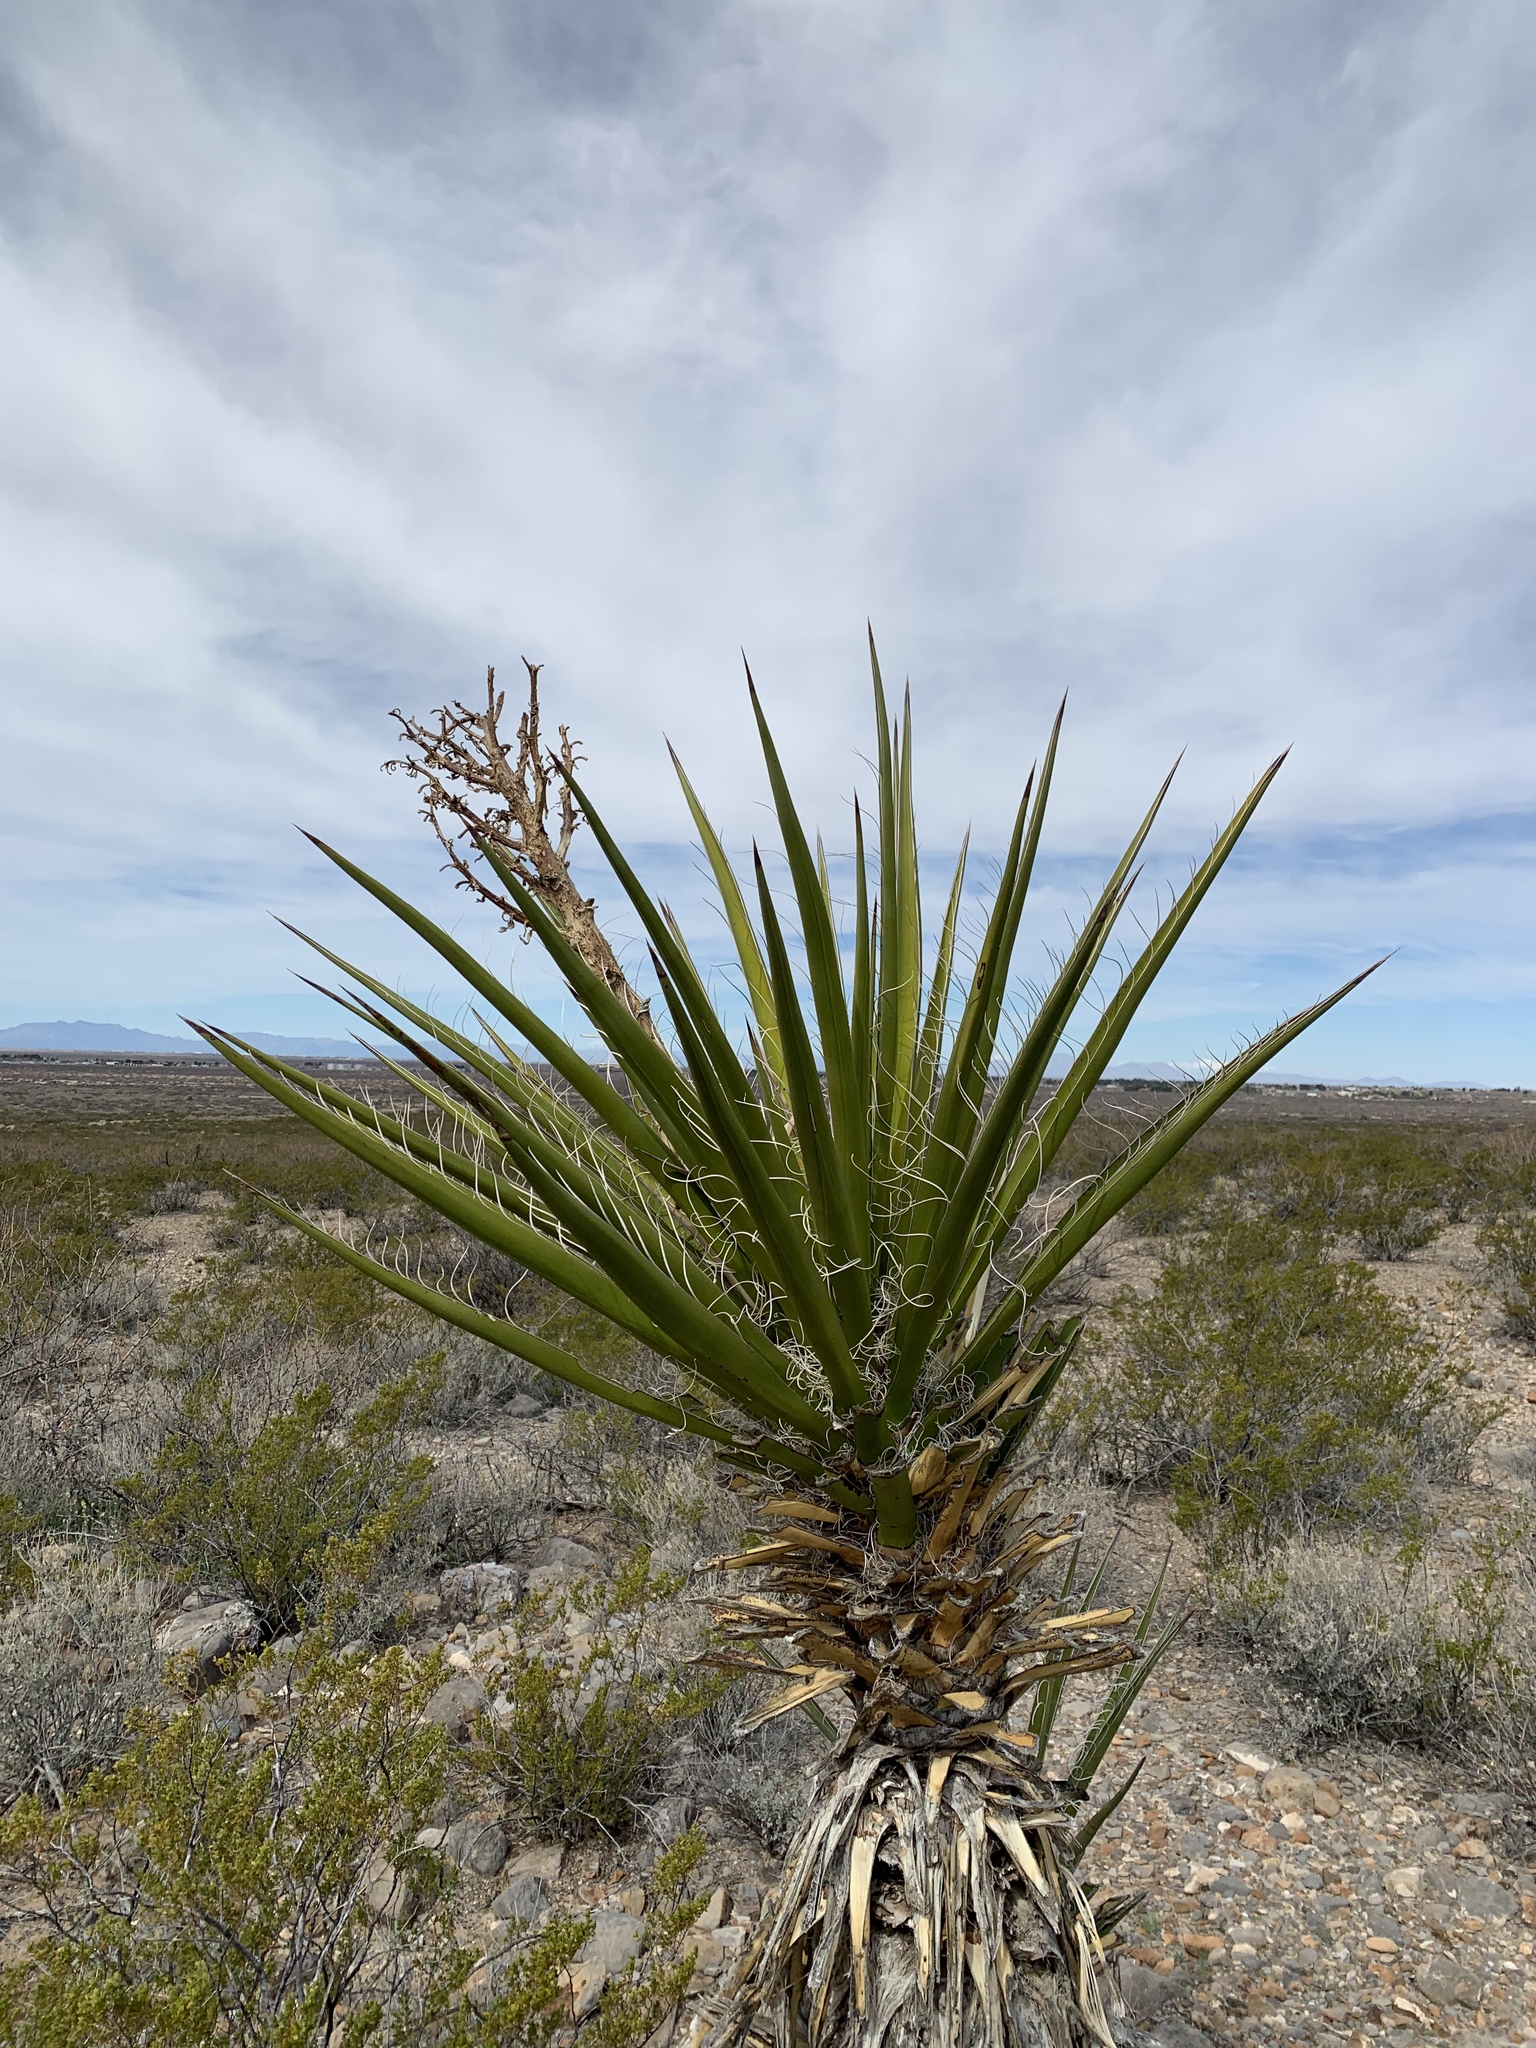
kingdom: Plantae
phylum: Tracheophyta
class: Liliopsida
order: Asparagales
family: Asparagaceae
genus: Yucca
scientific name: Yucca treculiana
